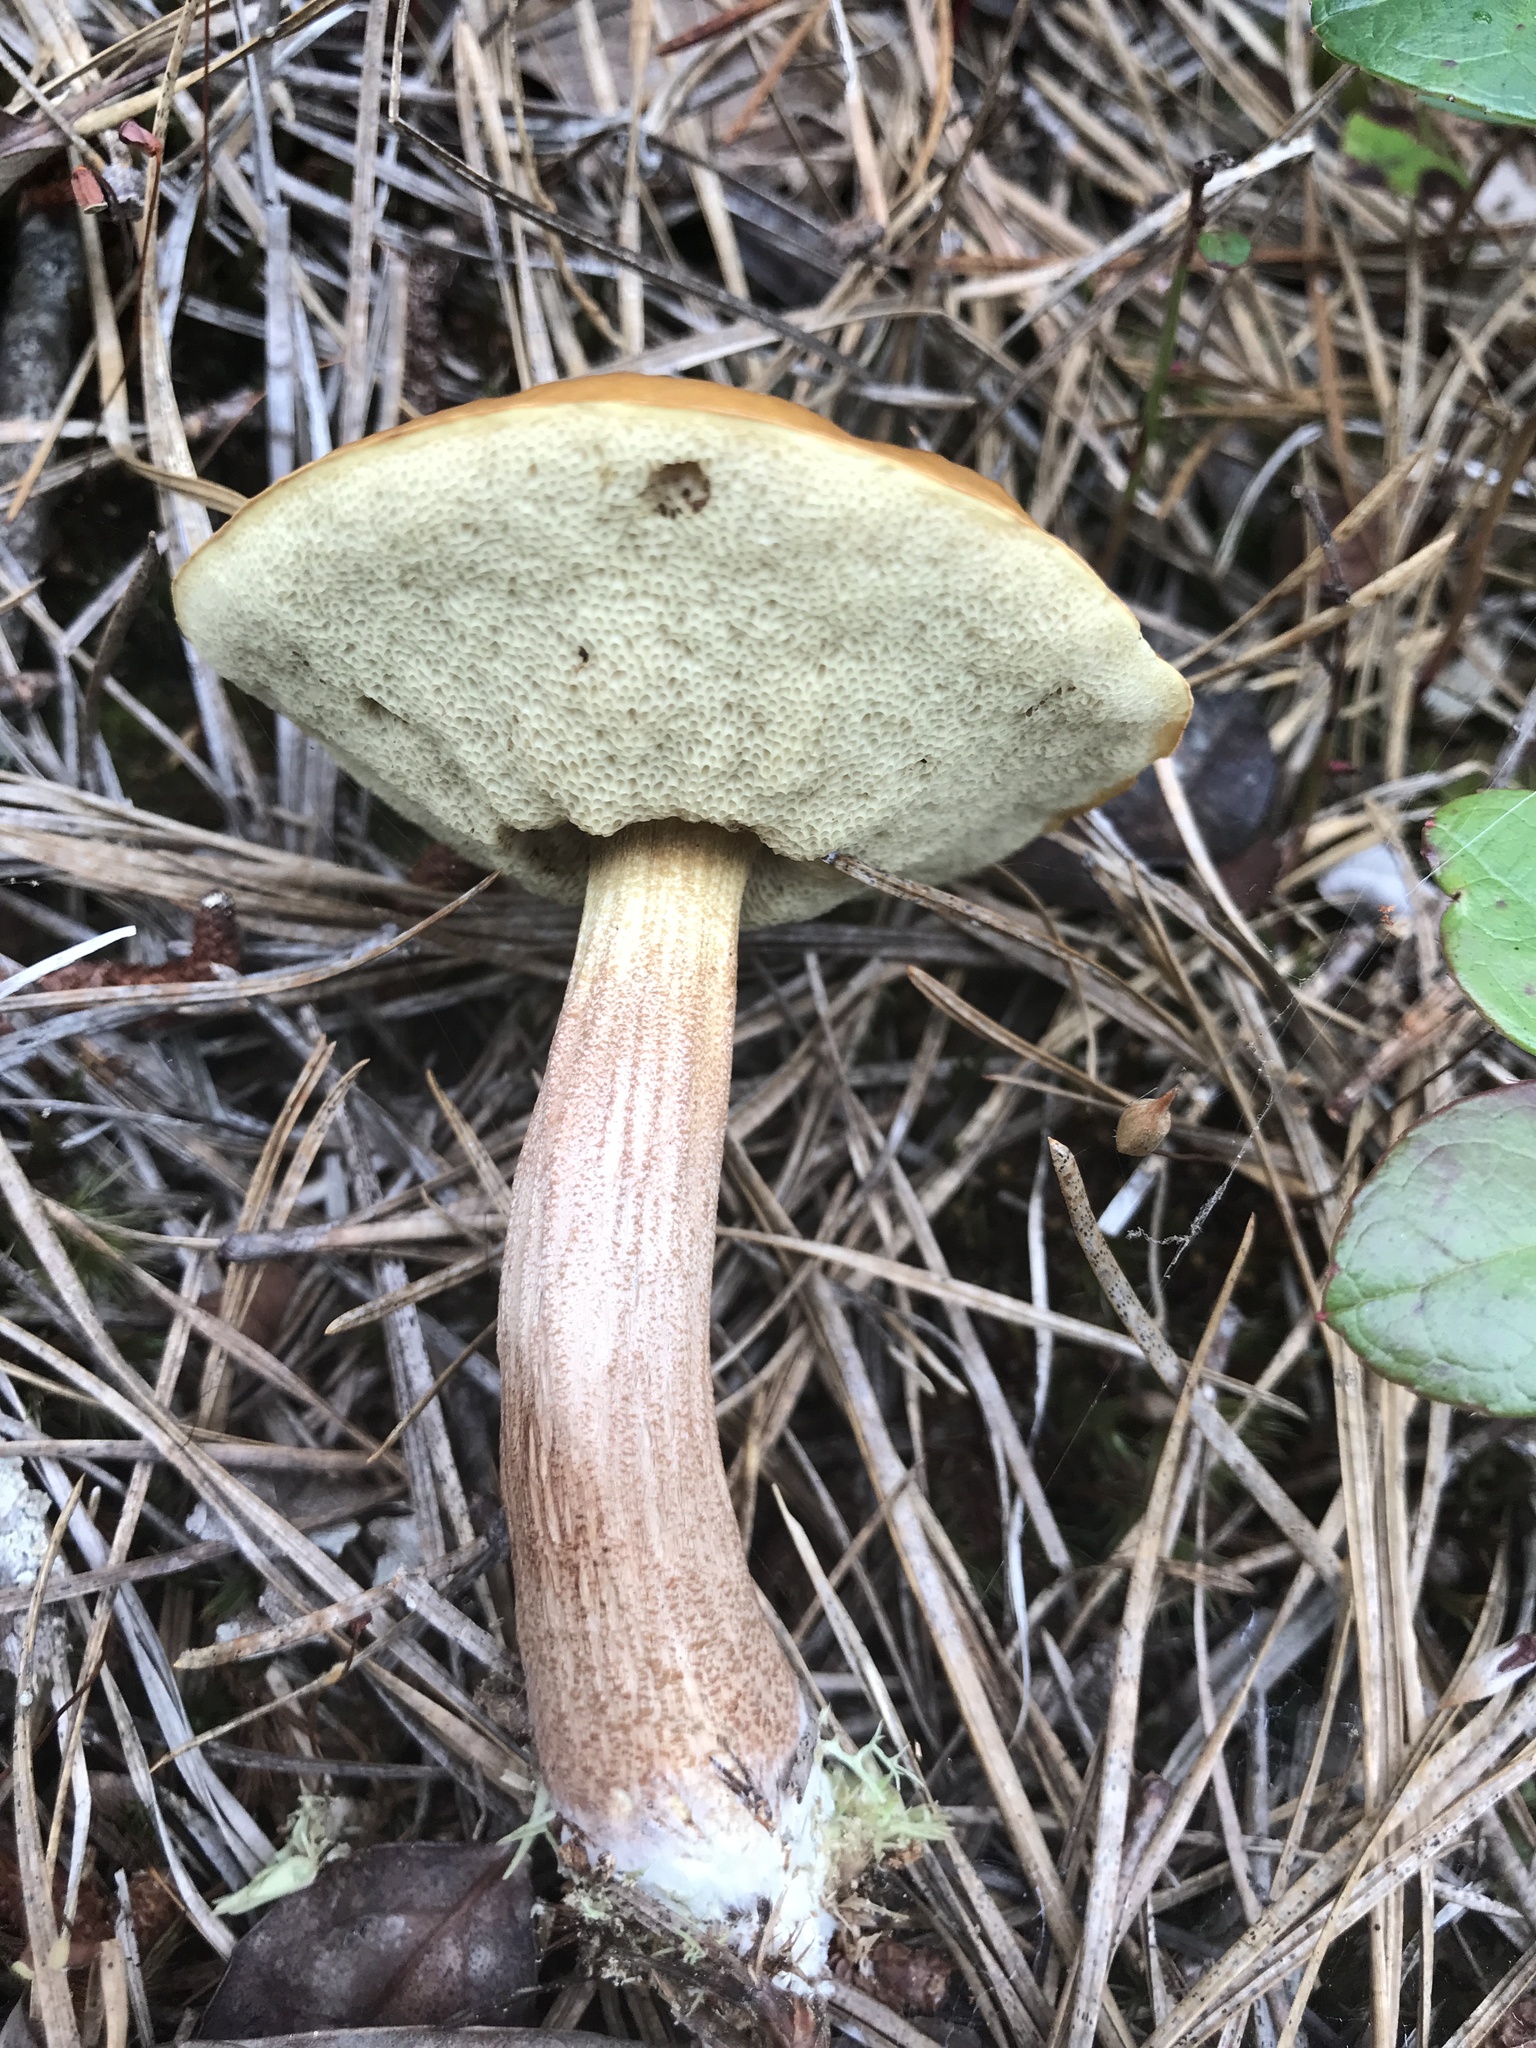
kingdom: Fungi
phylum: Basidiomycota
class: Agaricomycetes
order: Boletales
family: Boletaceae
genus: Leccinum
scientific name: Leccinum longicurvipes
